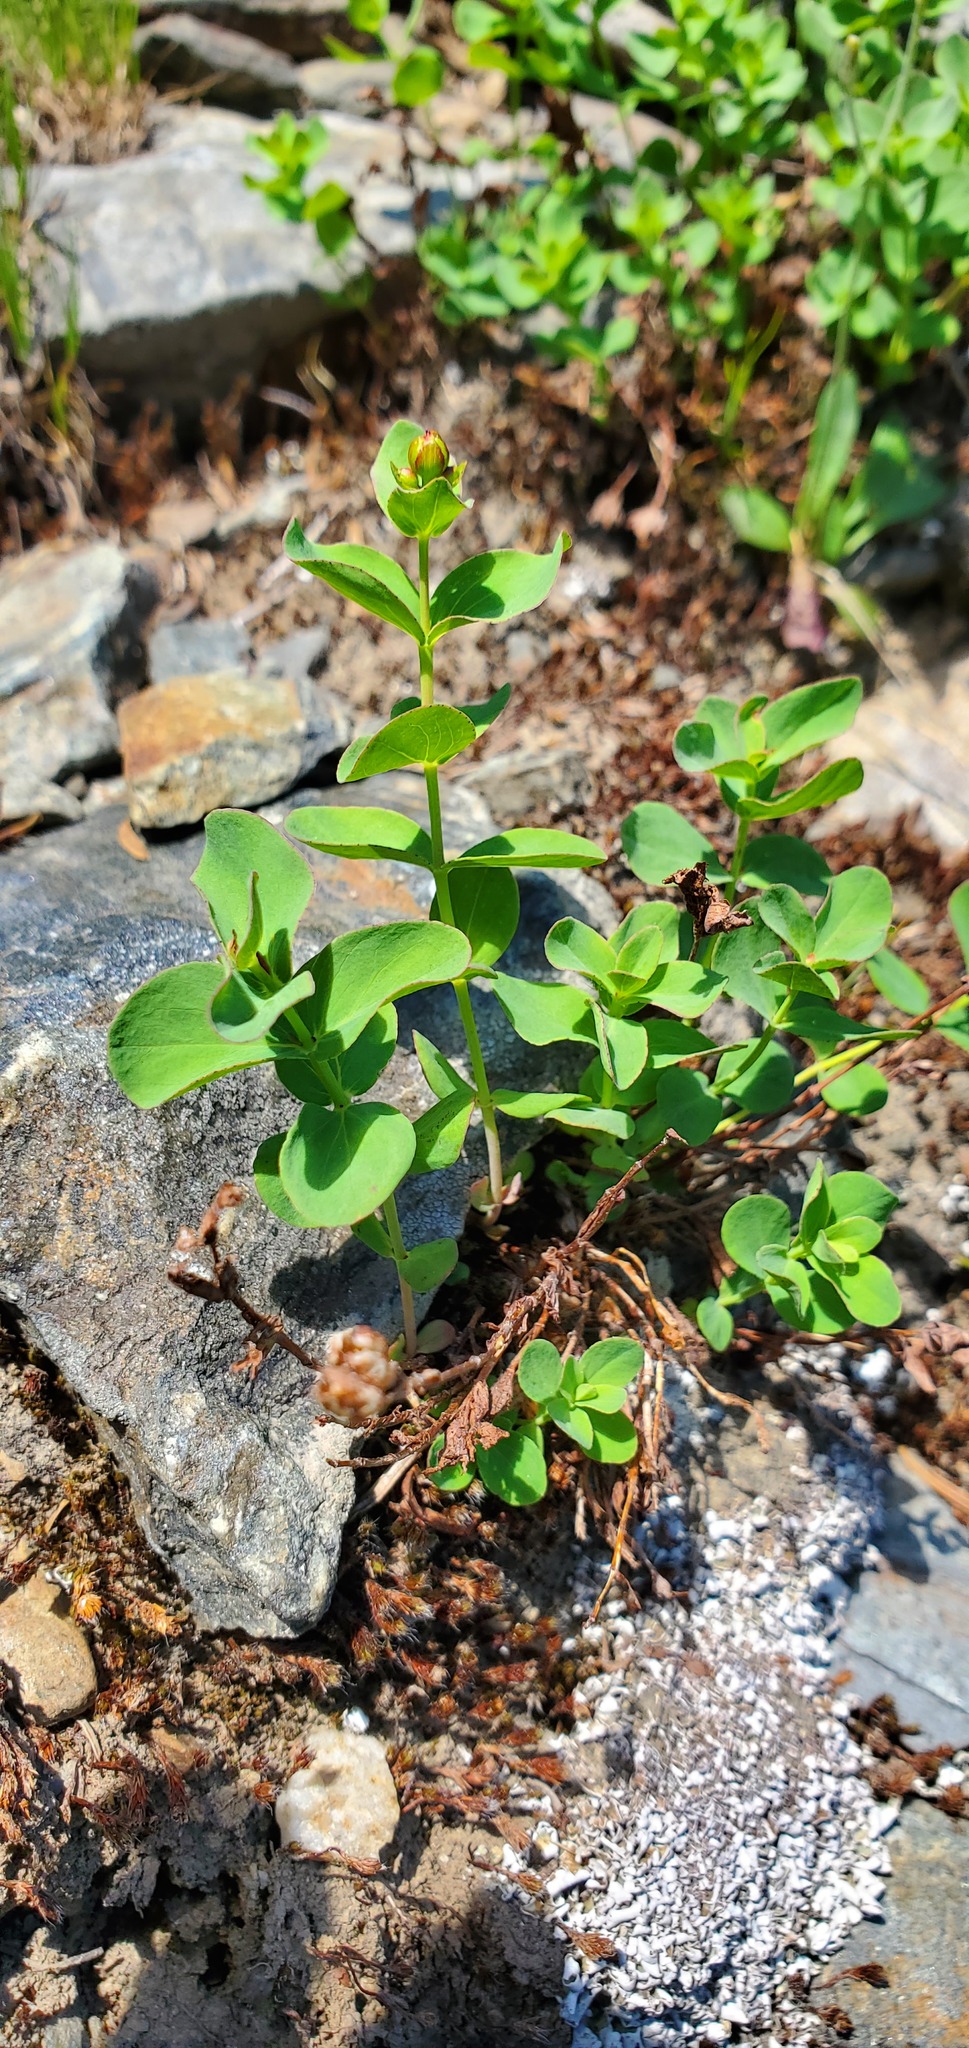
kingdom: Plantae
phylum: Tracheophyta
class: Magnoliopsida
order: Malpighiales
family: Hypericaceae
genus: Hypericum
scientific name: Hypericum scouleri
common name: Scouler's st. john's-wort
